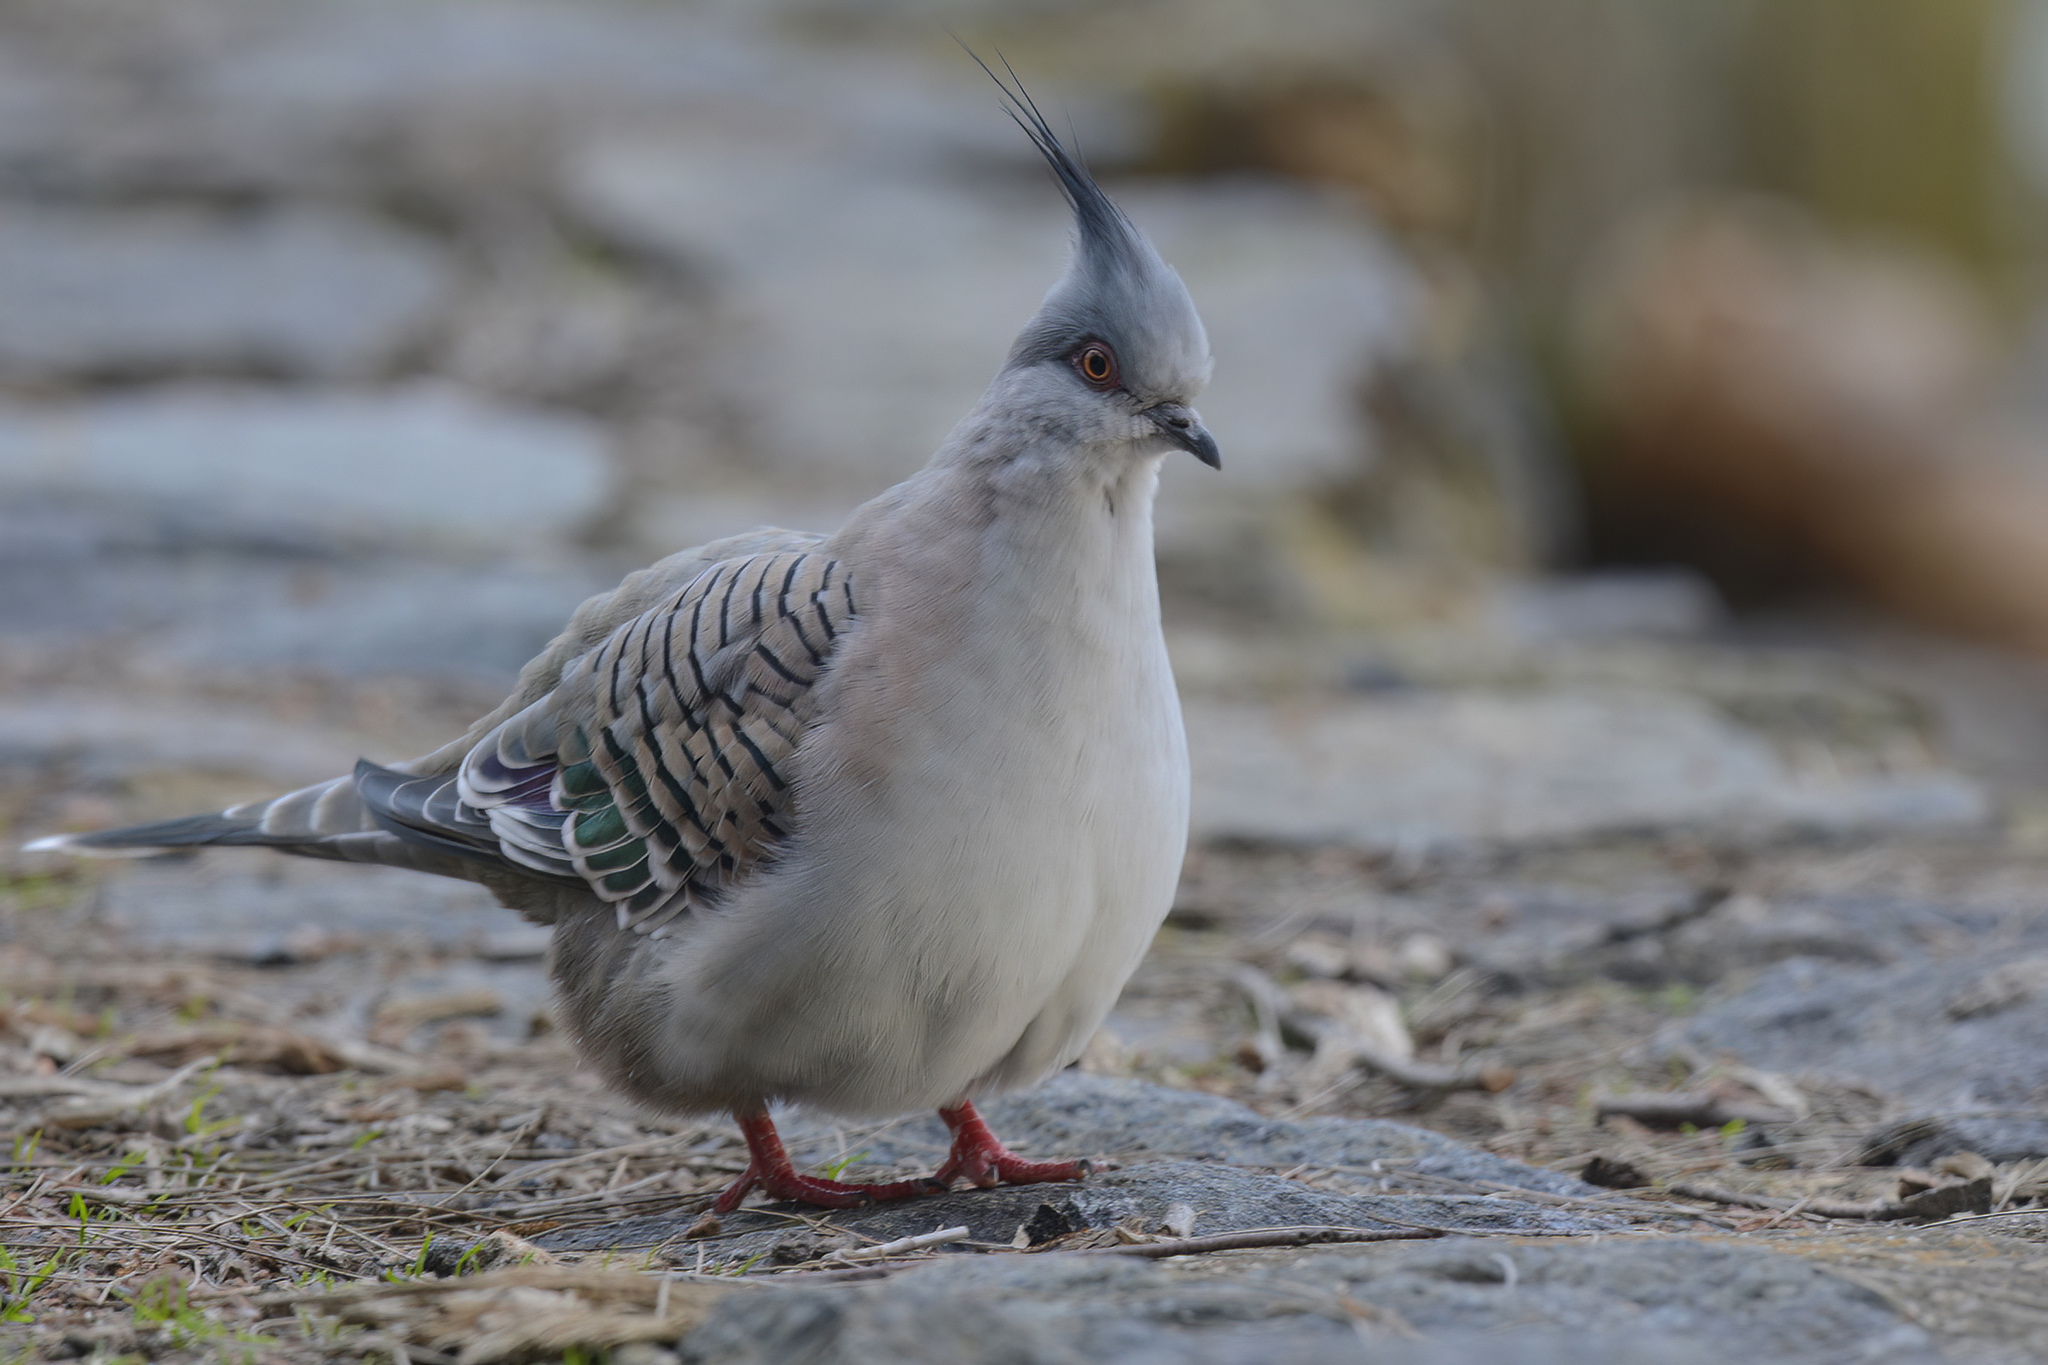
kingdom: Animalia
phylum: Chordata
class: Aves
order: Columbiformes
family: Columbidae
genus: Ocyphaps
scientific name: Ocyphaps lophotes
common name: Crested pigeon
